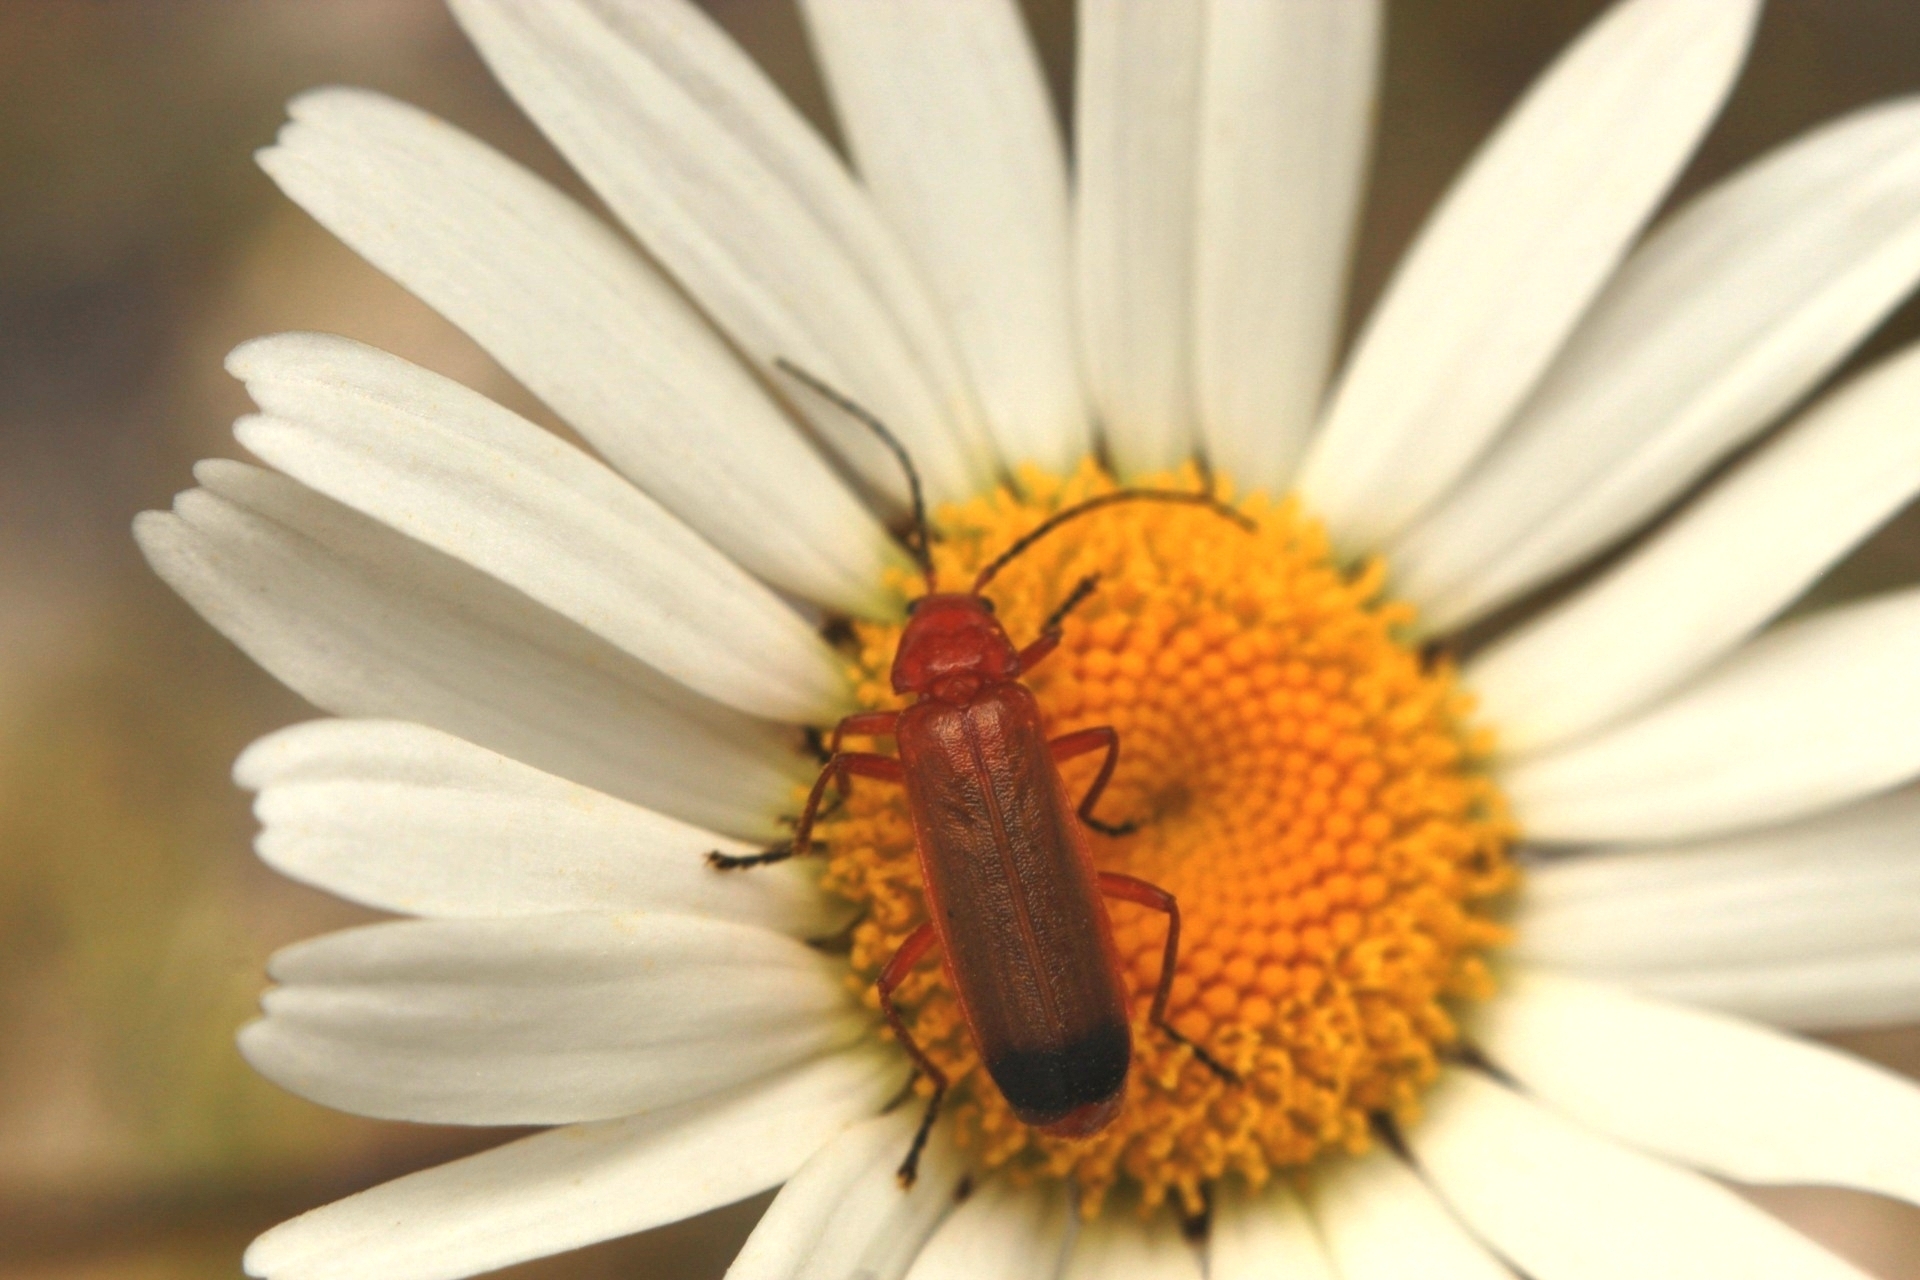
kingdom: Animalia
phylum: Arthropoda
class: Insecta
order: Coleoptera
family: Cantharidae
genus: Rhagonycha
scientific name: Rhagonycha fulva
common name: Common red soldier beetle
